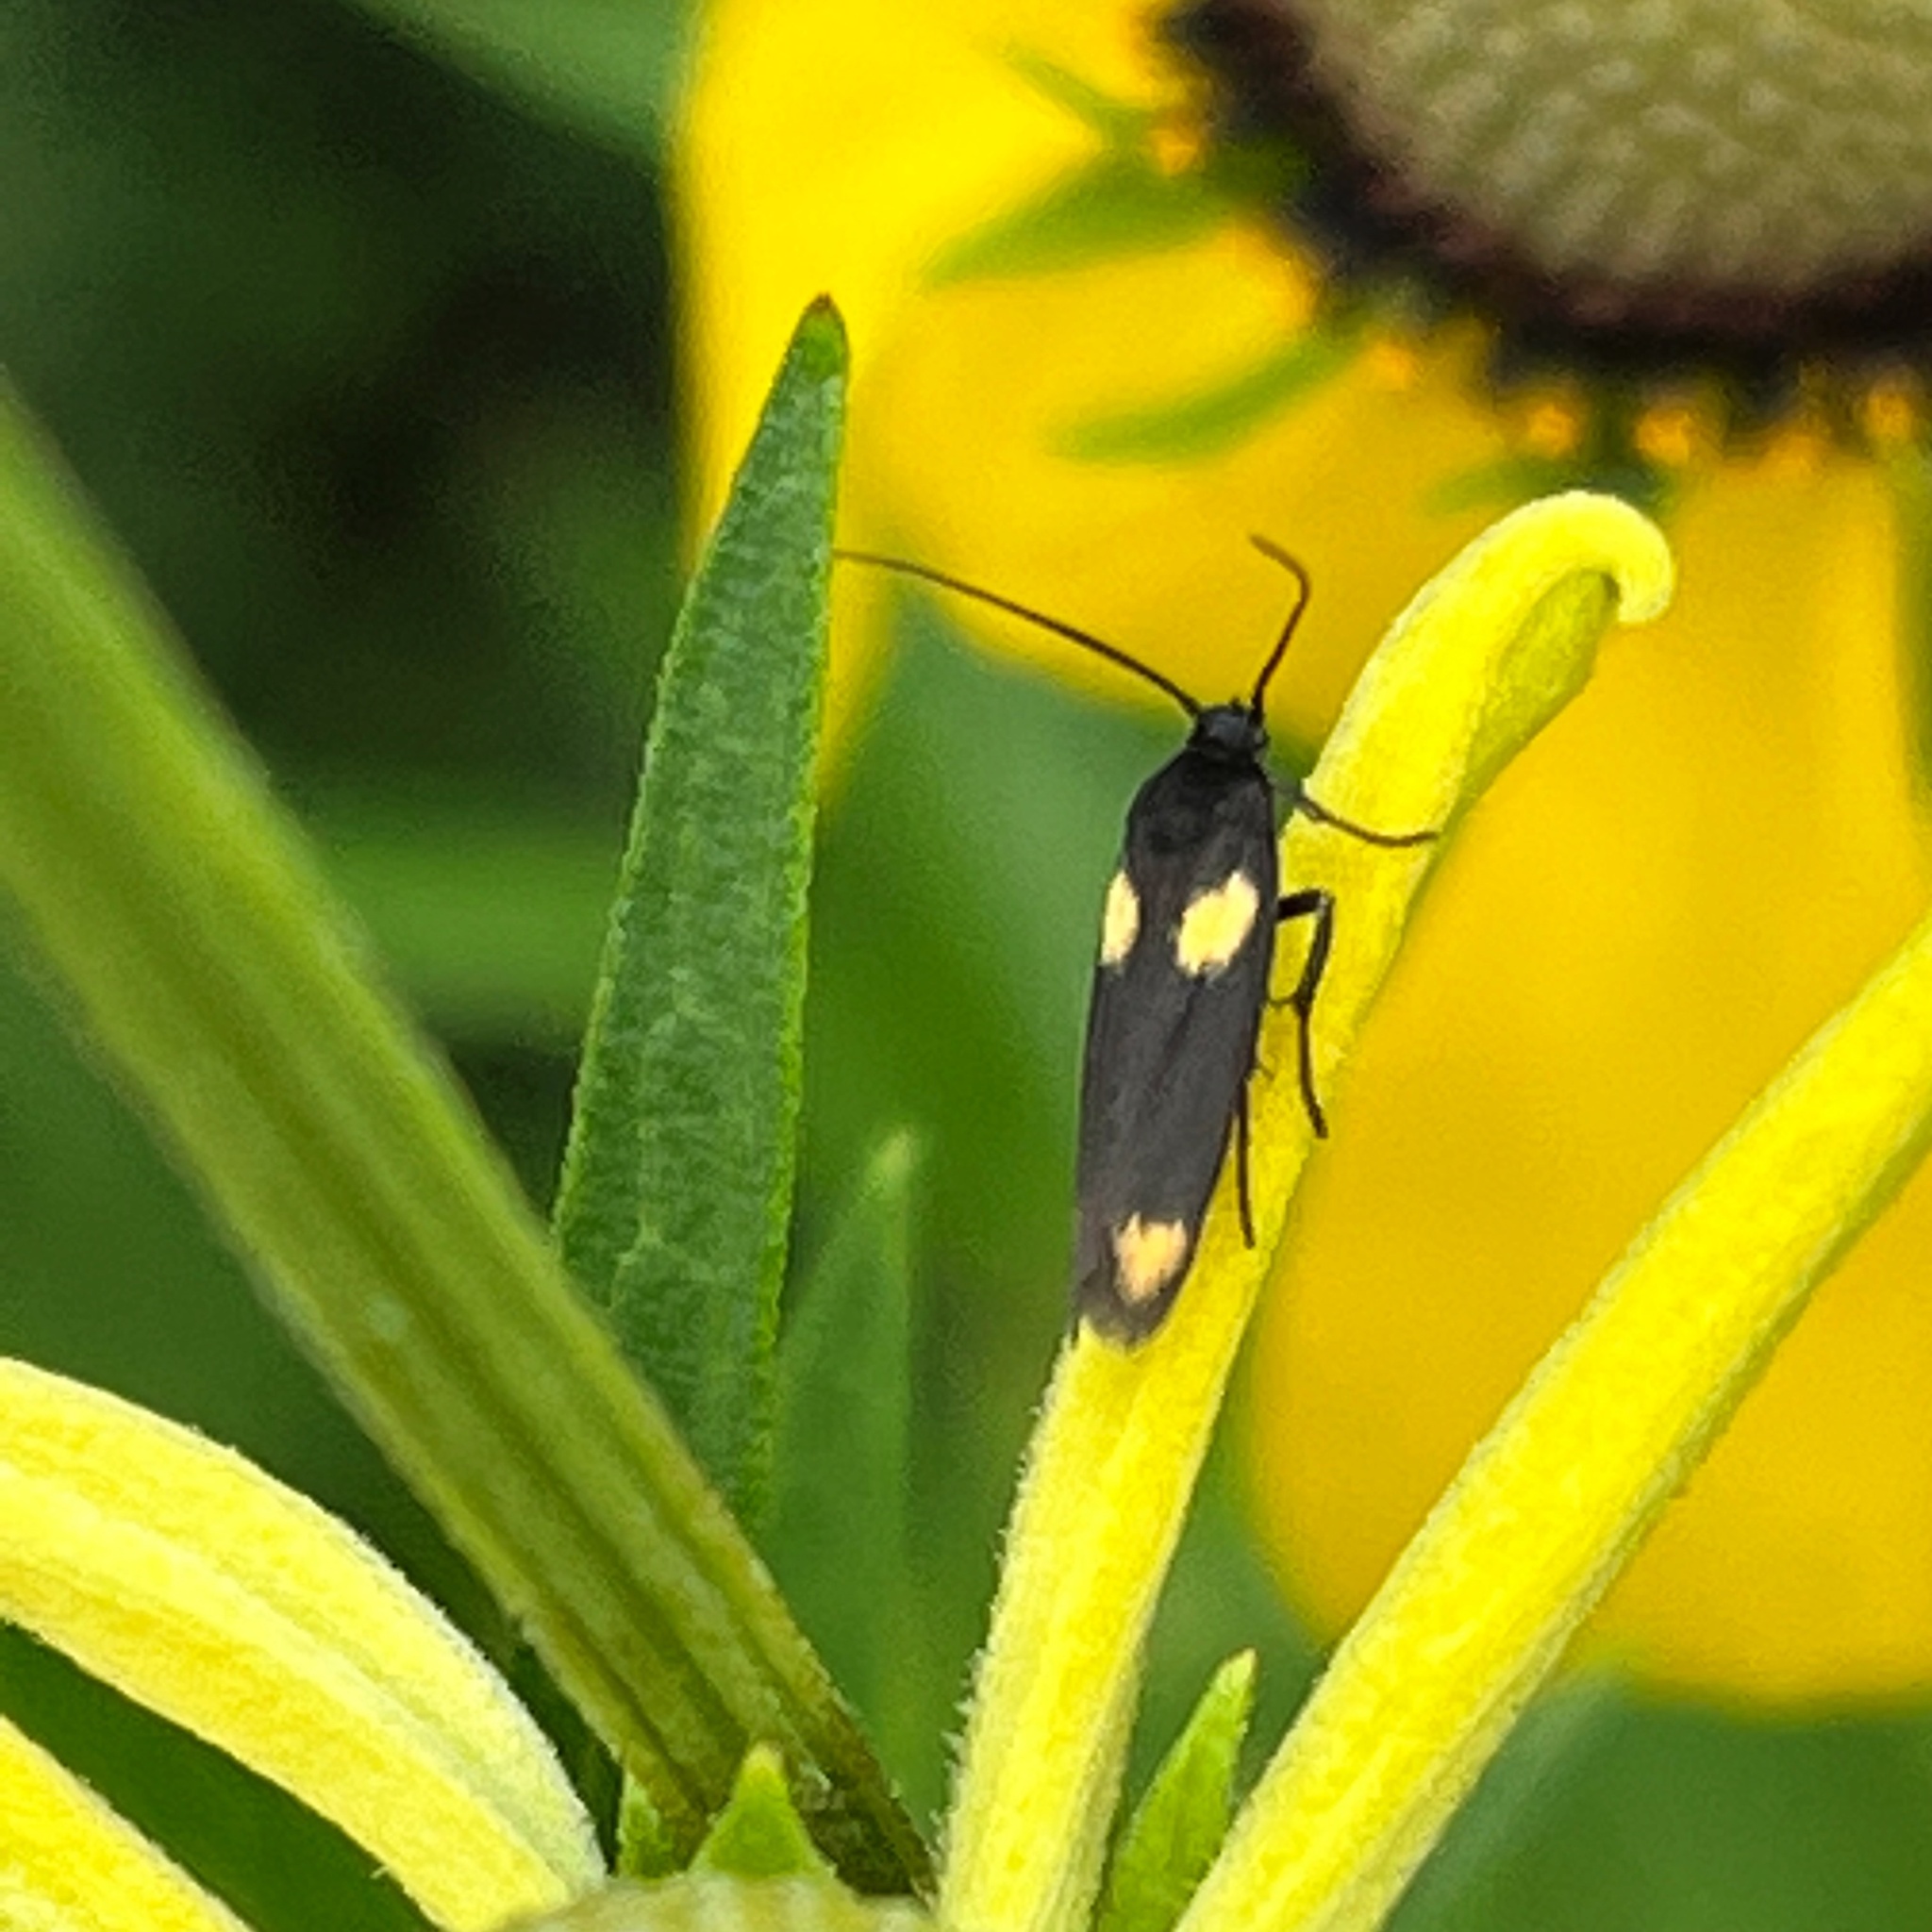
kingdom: Animalia
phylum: Arthropoda
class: Insecta
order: Lepidoptera
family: Scythrididae
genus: Scythris
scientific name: Scythris sinensis
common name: Kentish owlet
